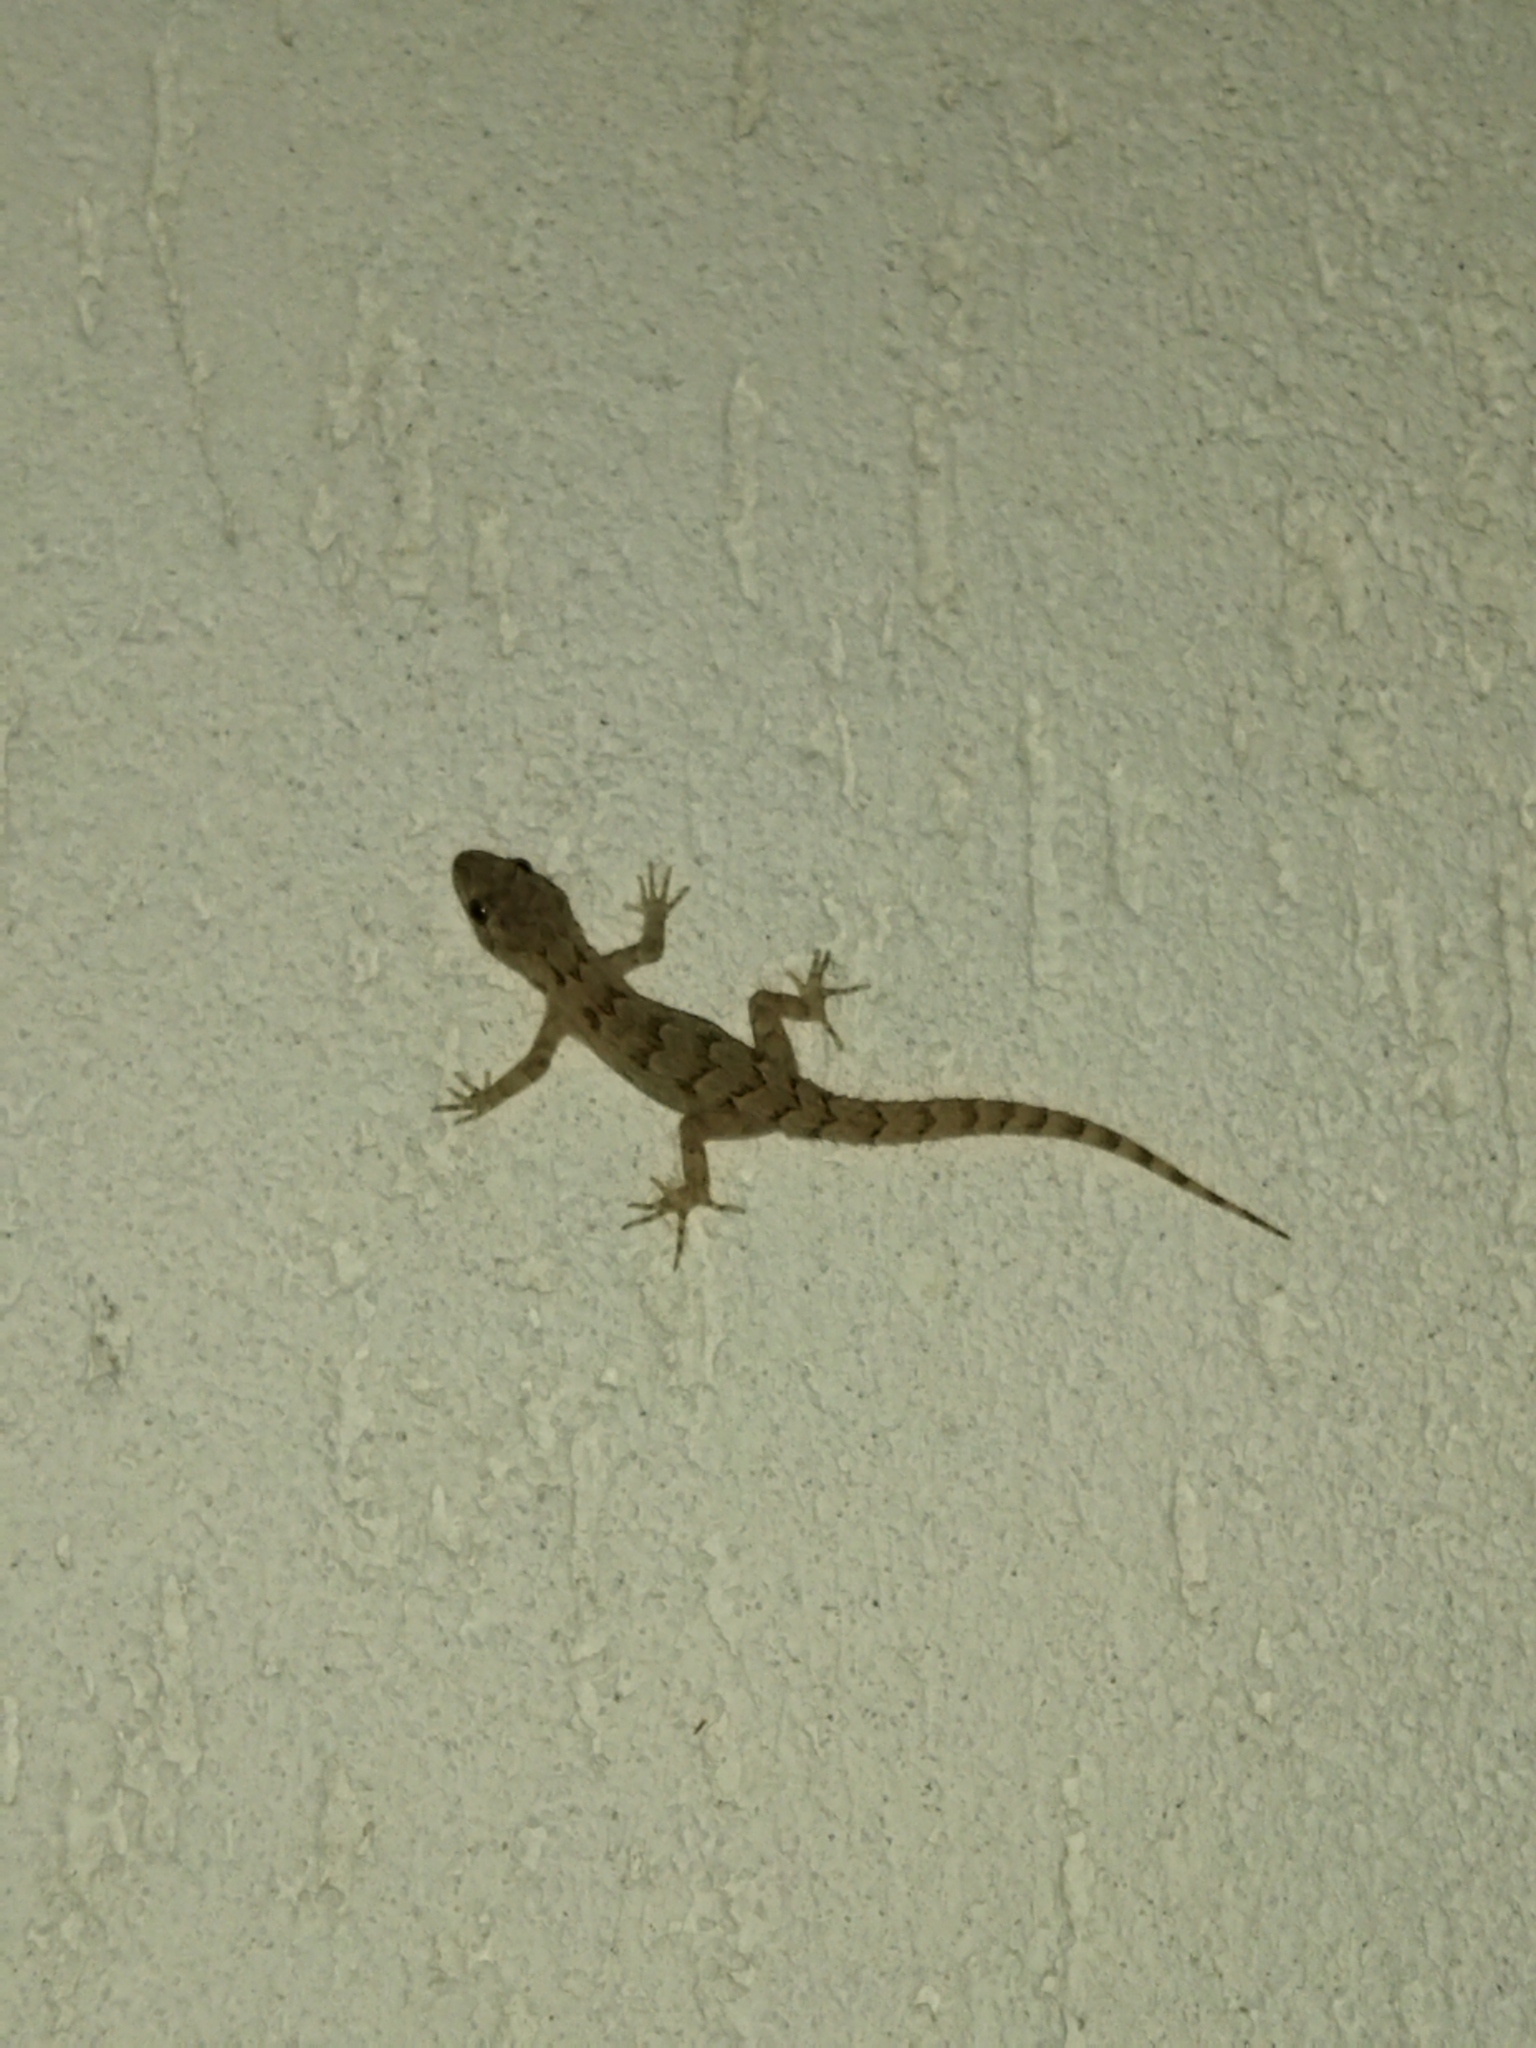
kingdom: Animalia
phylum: Chordata
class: Squamata
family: Gekkonidae
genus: Mediodactylus
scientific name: Mediodactylus kotschyi
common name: Kotschy's gecko
